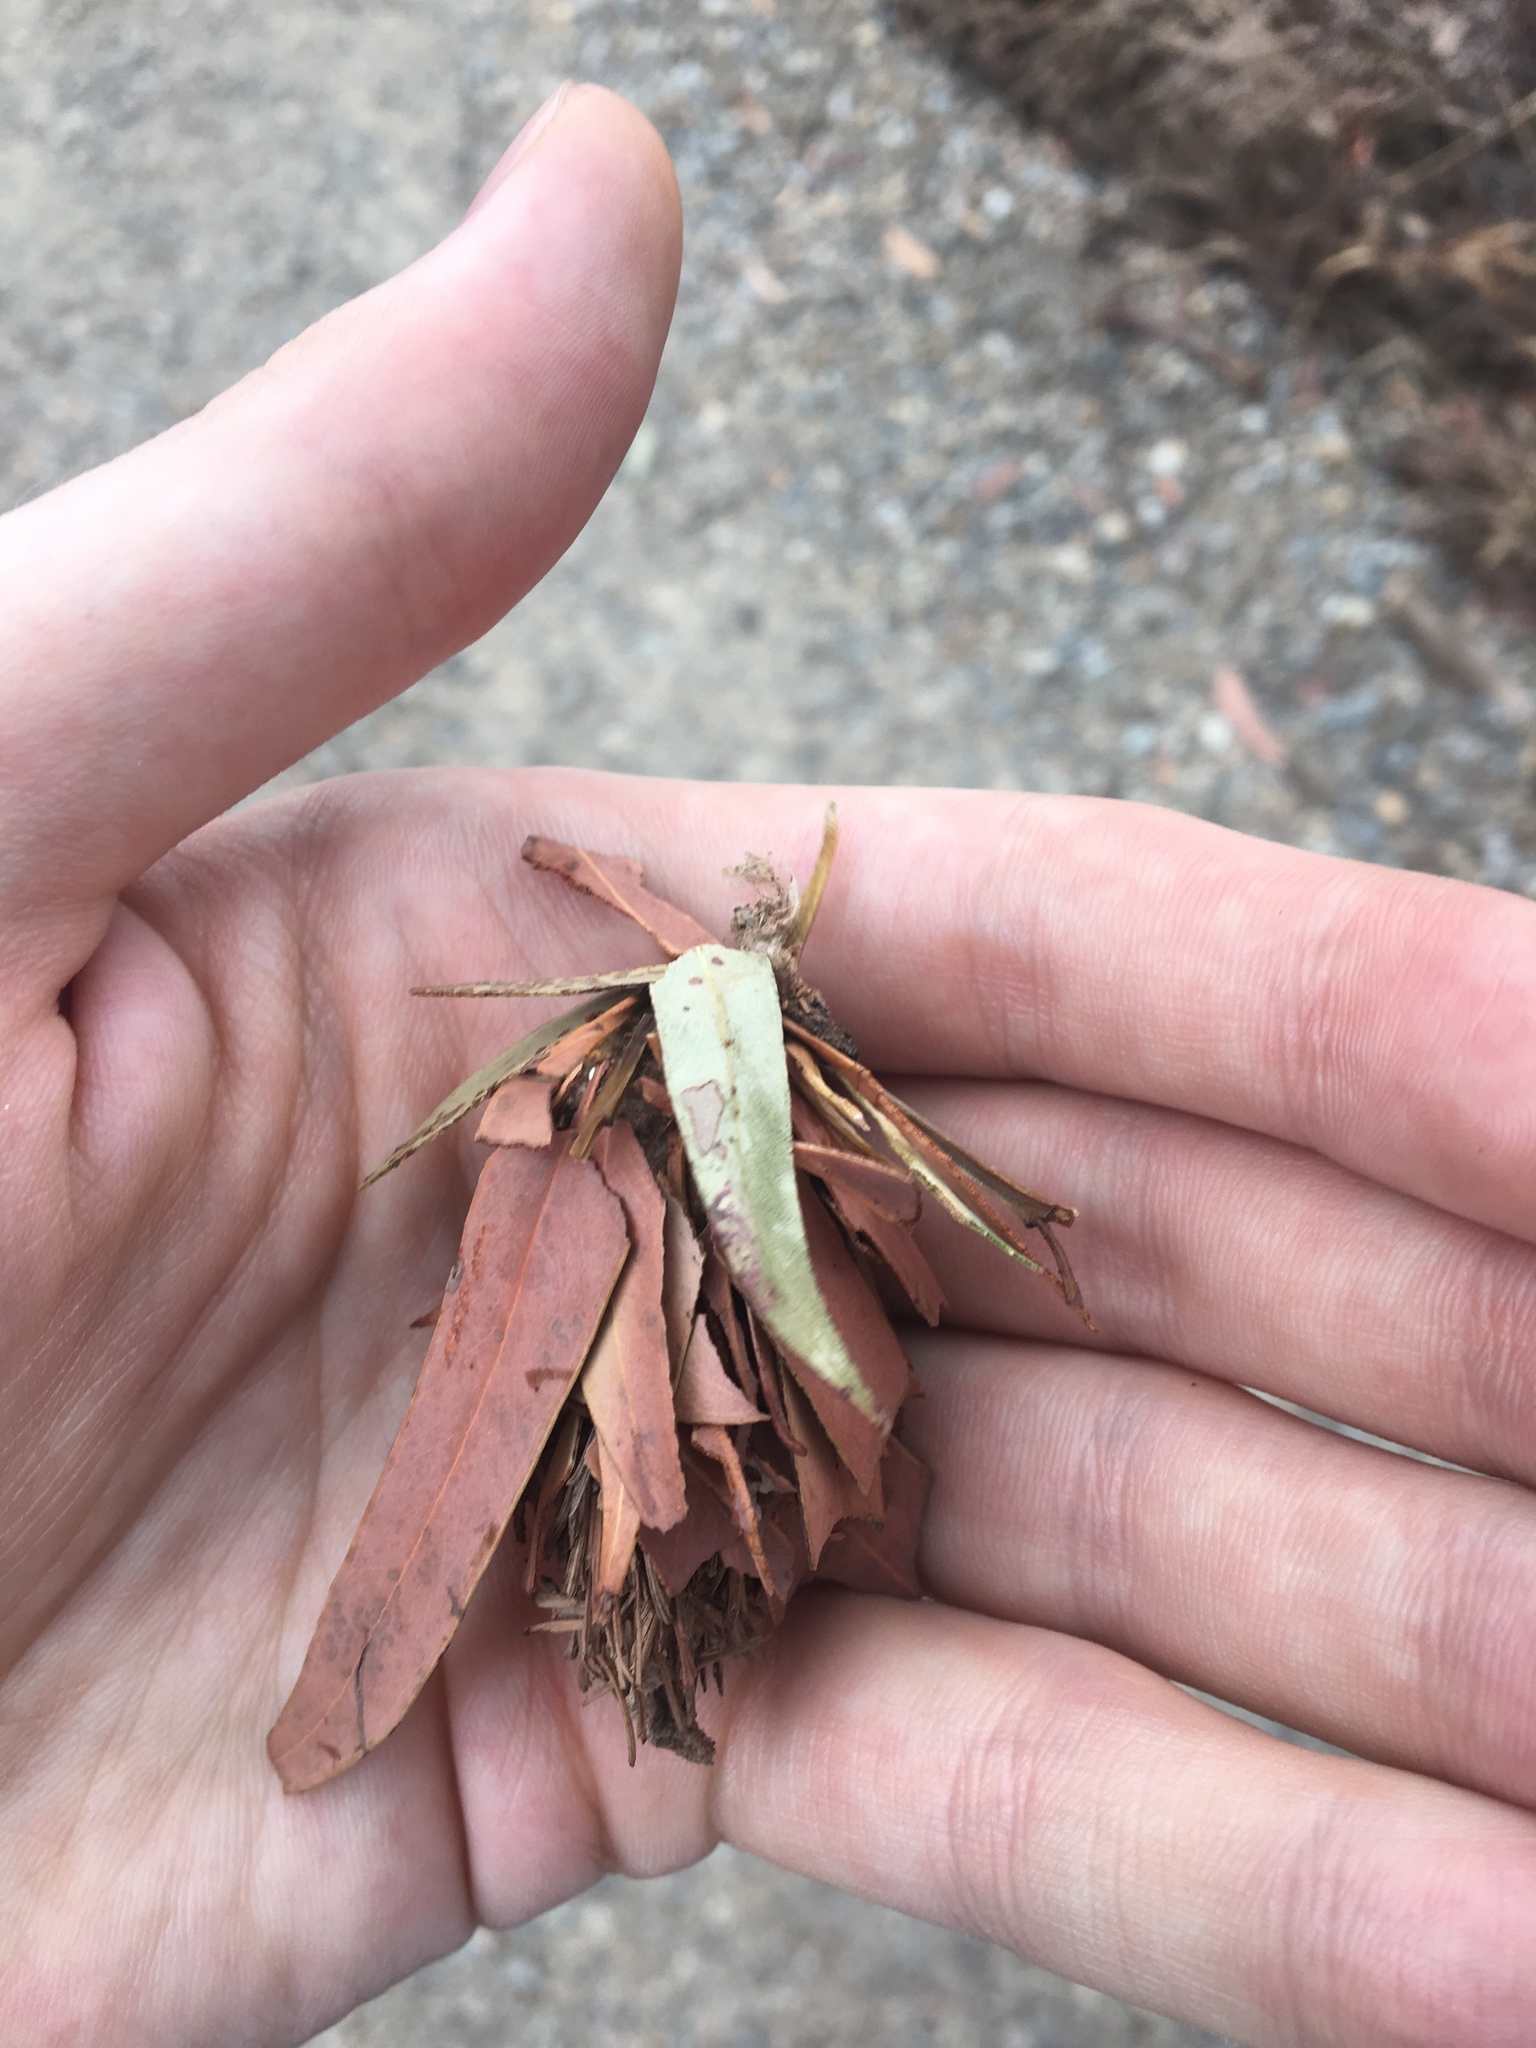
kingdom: Animalia
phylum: Arthropoda
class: Insecta
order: Lepidoptera
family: Psychidae
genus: Hyalarcta
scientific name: Hyalarcta huebneri
